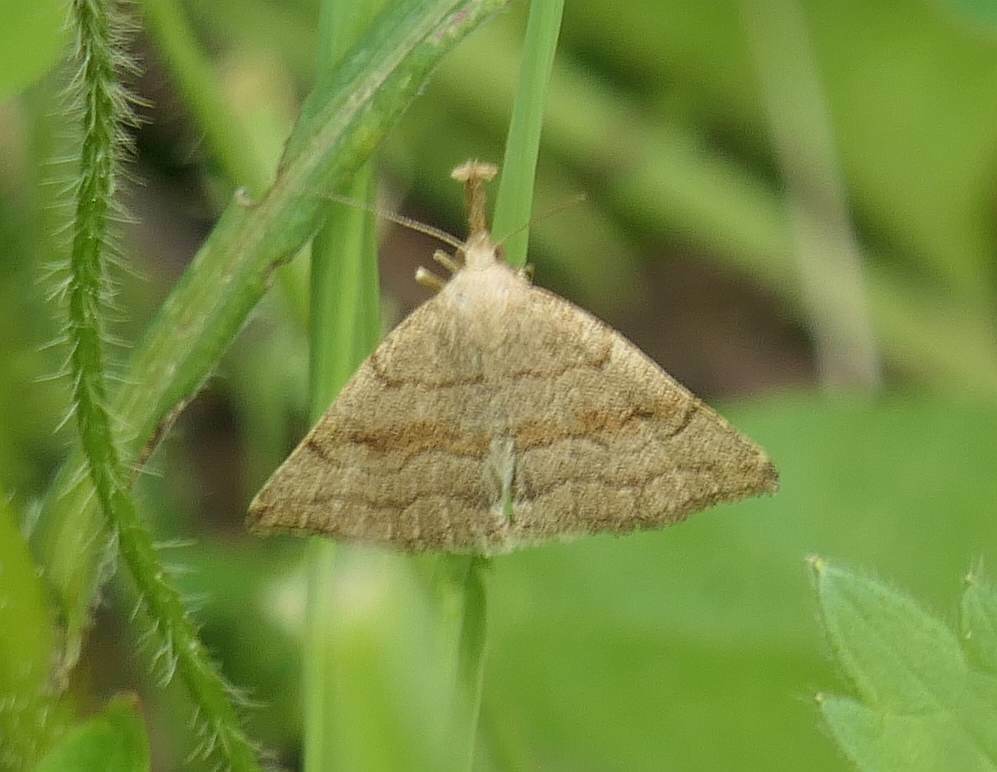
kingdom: Animalia
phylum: Arthropoda
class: Insecta
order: Lepidoptera
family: Erebidae
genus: Phalaenostola
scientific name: Phalaenostola metonalis
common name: Pale phalaenostola moth
